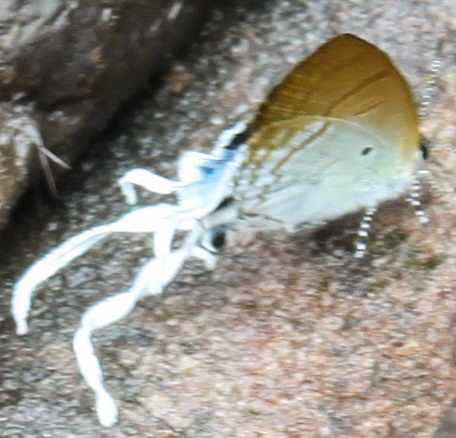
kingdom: Animalia
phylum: Arthropoda
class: Insecta
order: Lepidoptera
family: Lycaenidae
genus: Zeltus
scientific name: Zeltus amasa
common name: Fluffy tit
